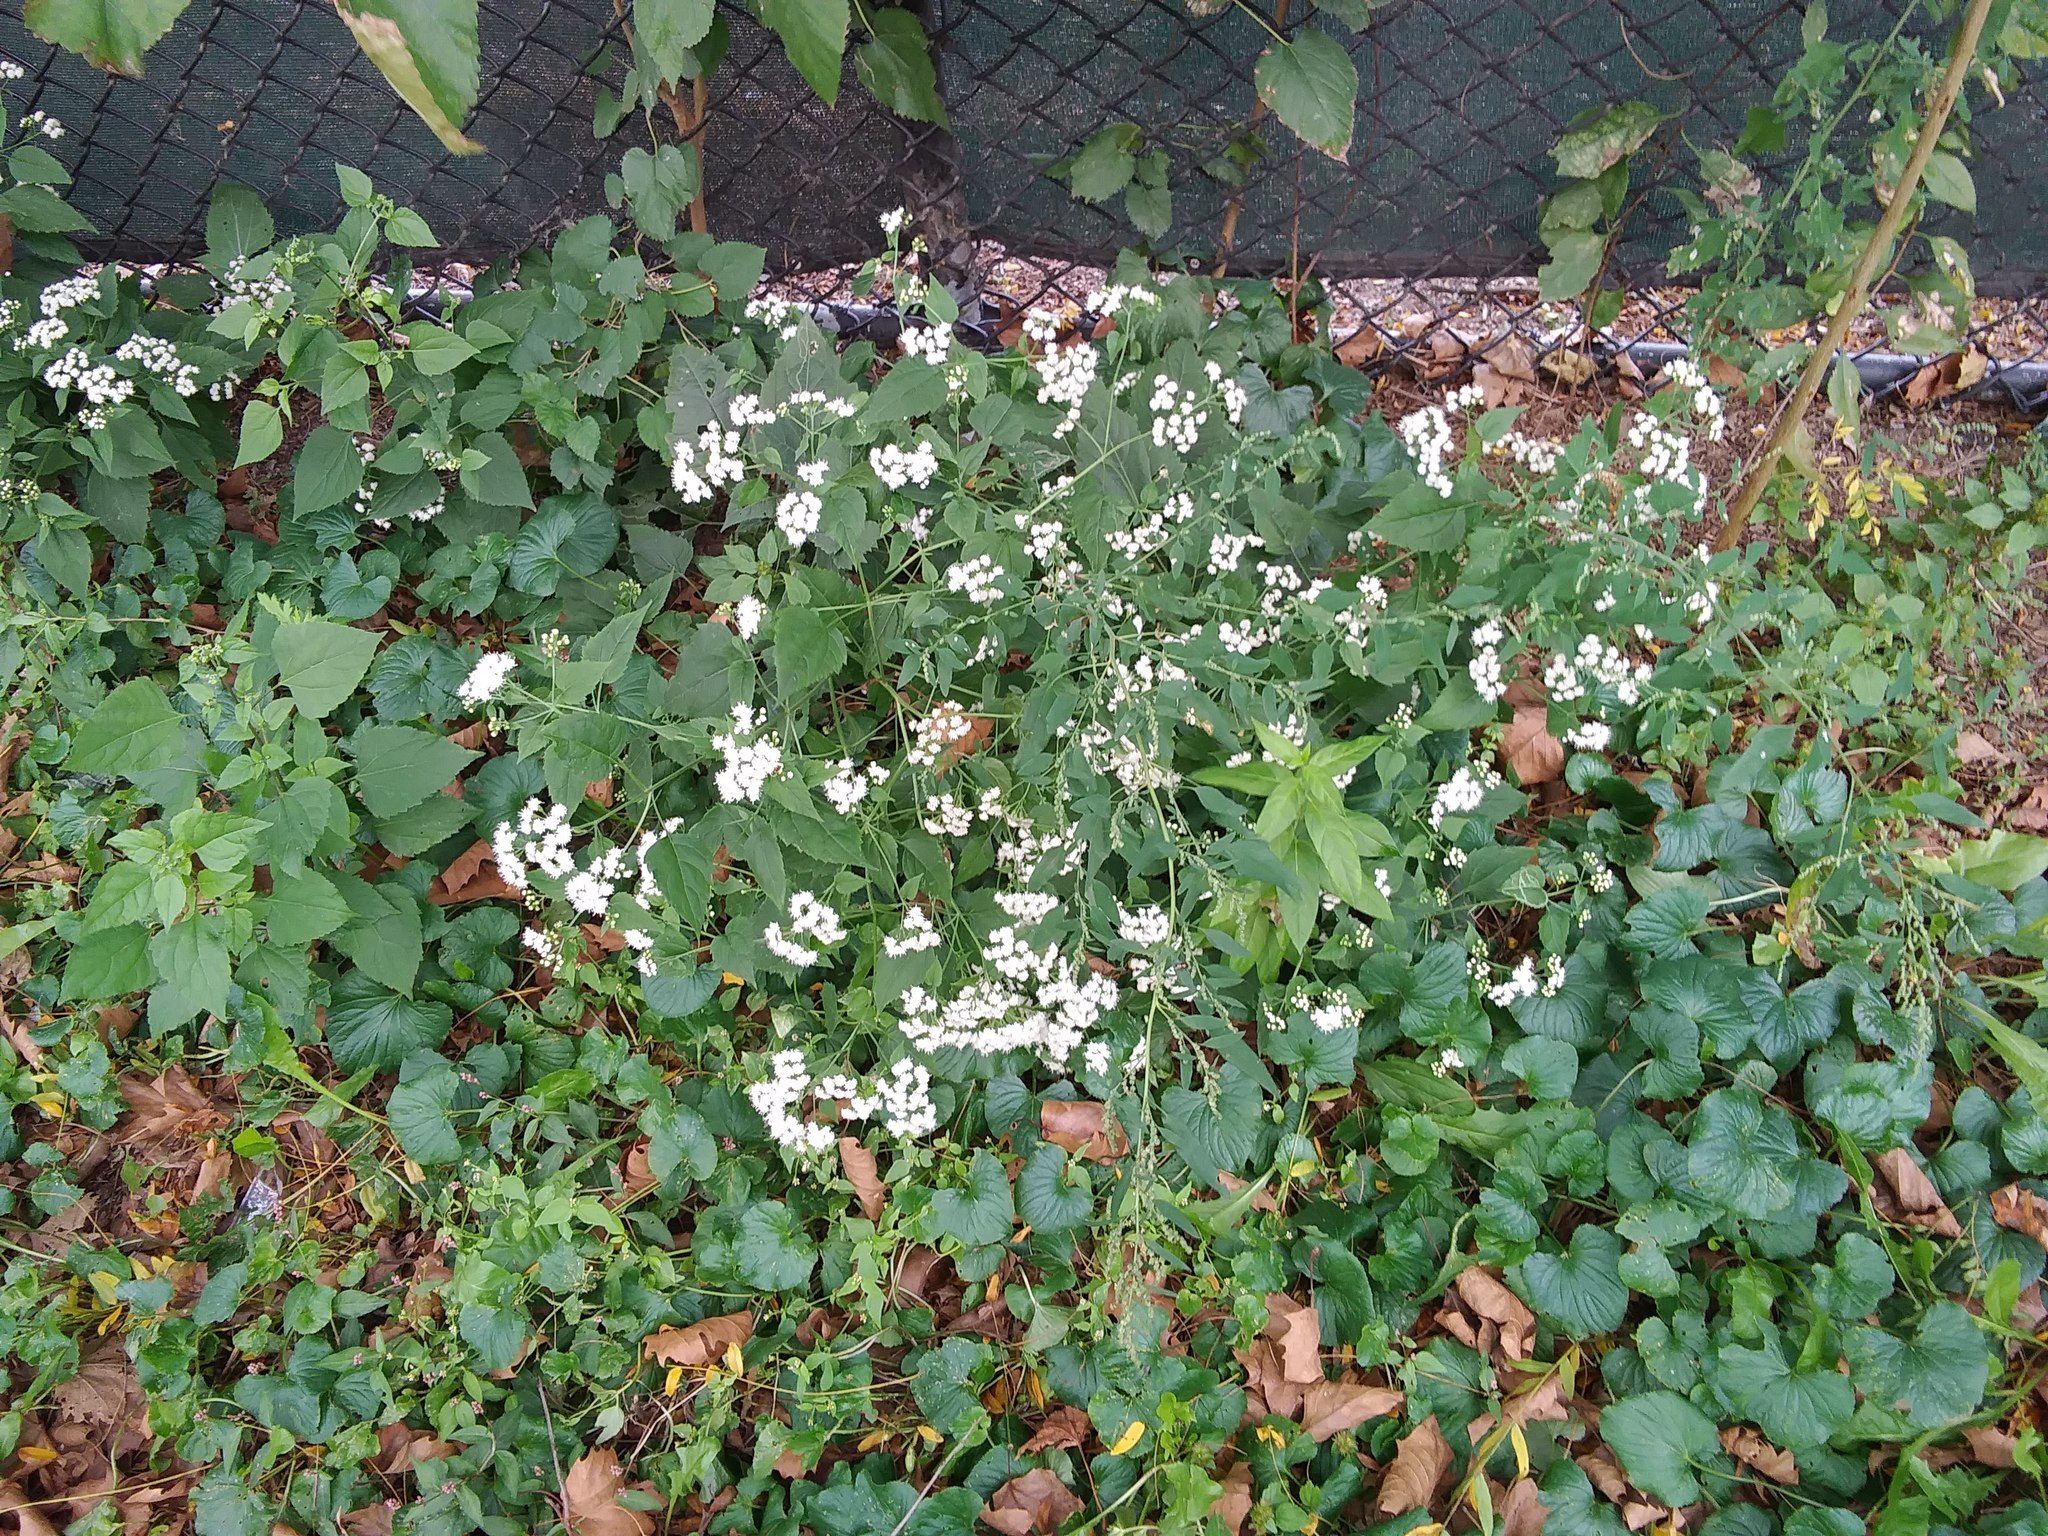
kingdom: Plantae
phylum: Tracheophyta
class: Magnoliopsida
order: Asterales
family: Asteraceae
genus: Ageratina
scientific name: Ageratina altissima
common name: White snakeroot
